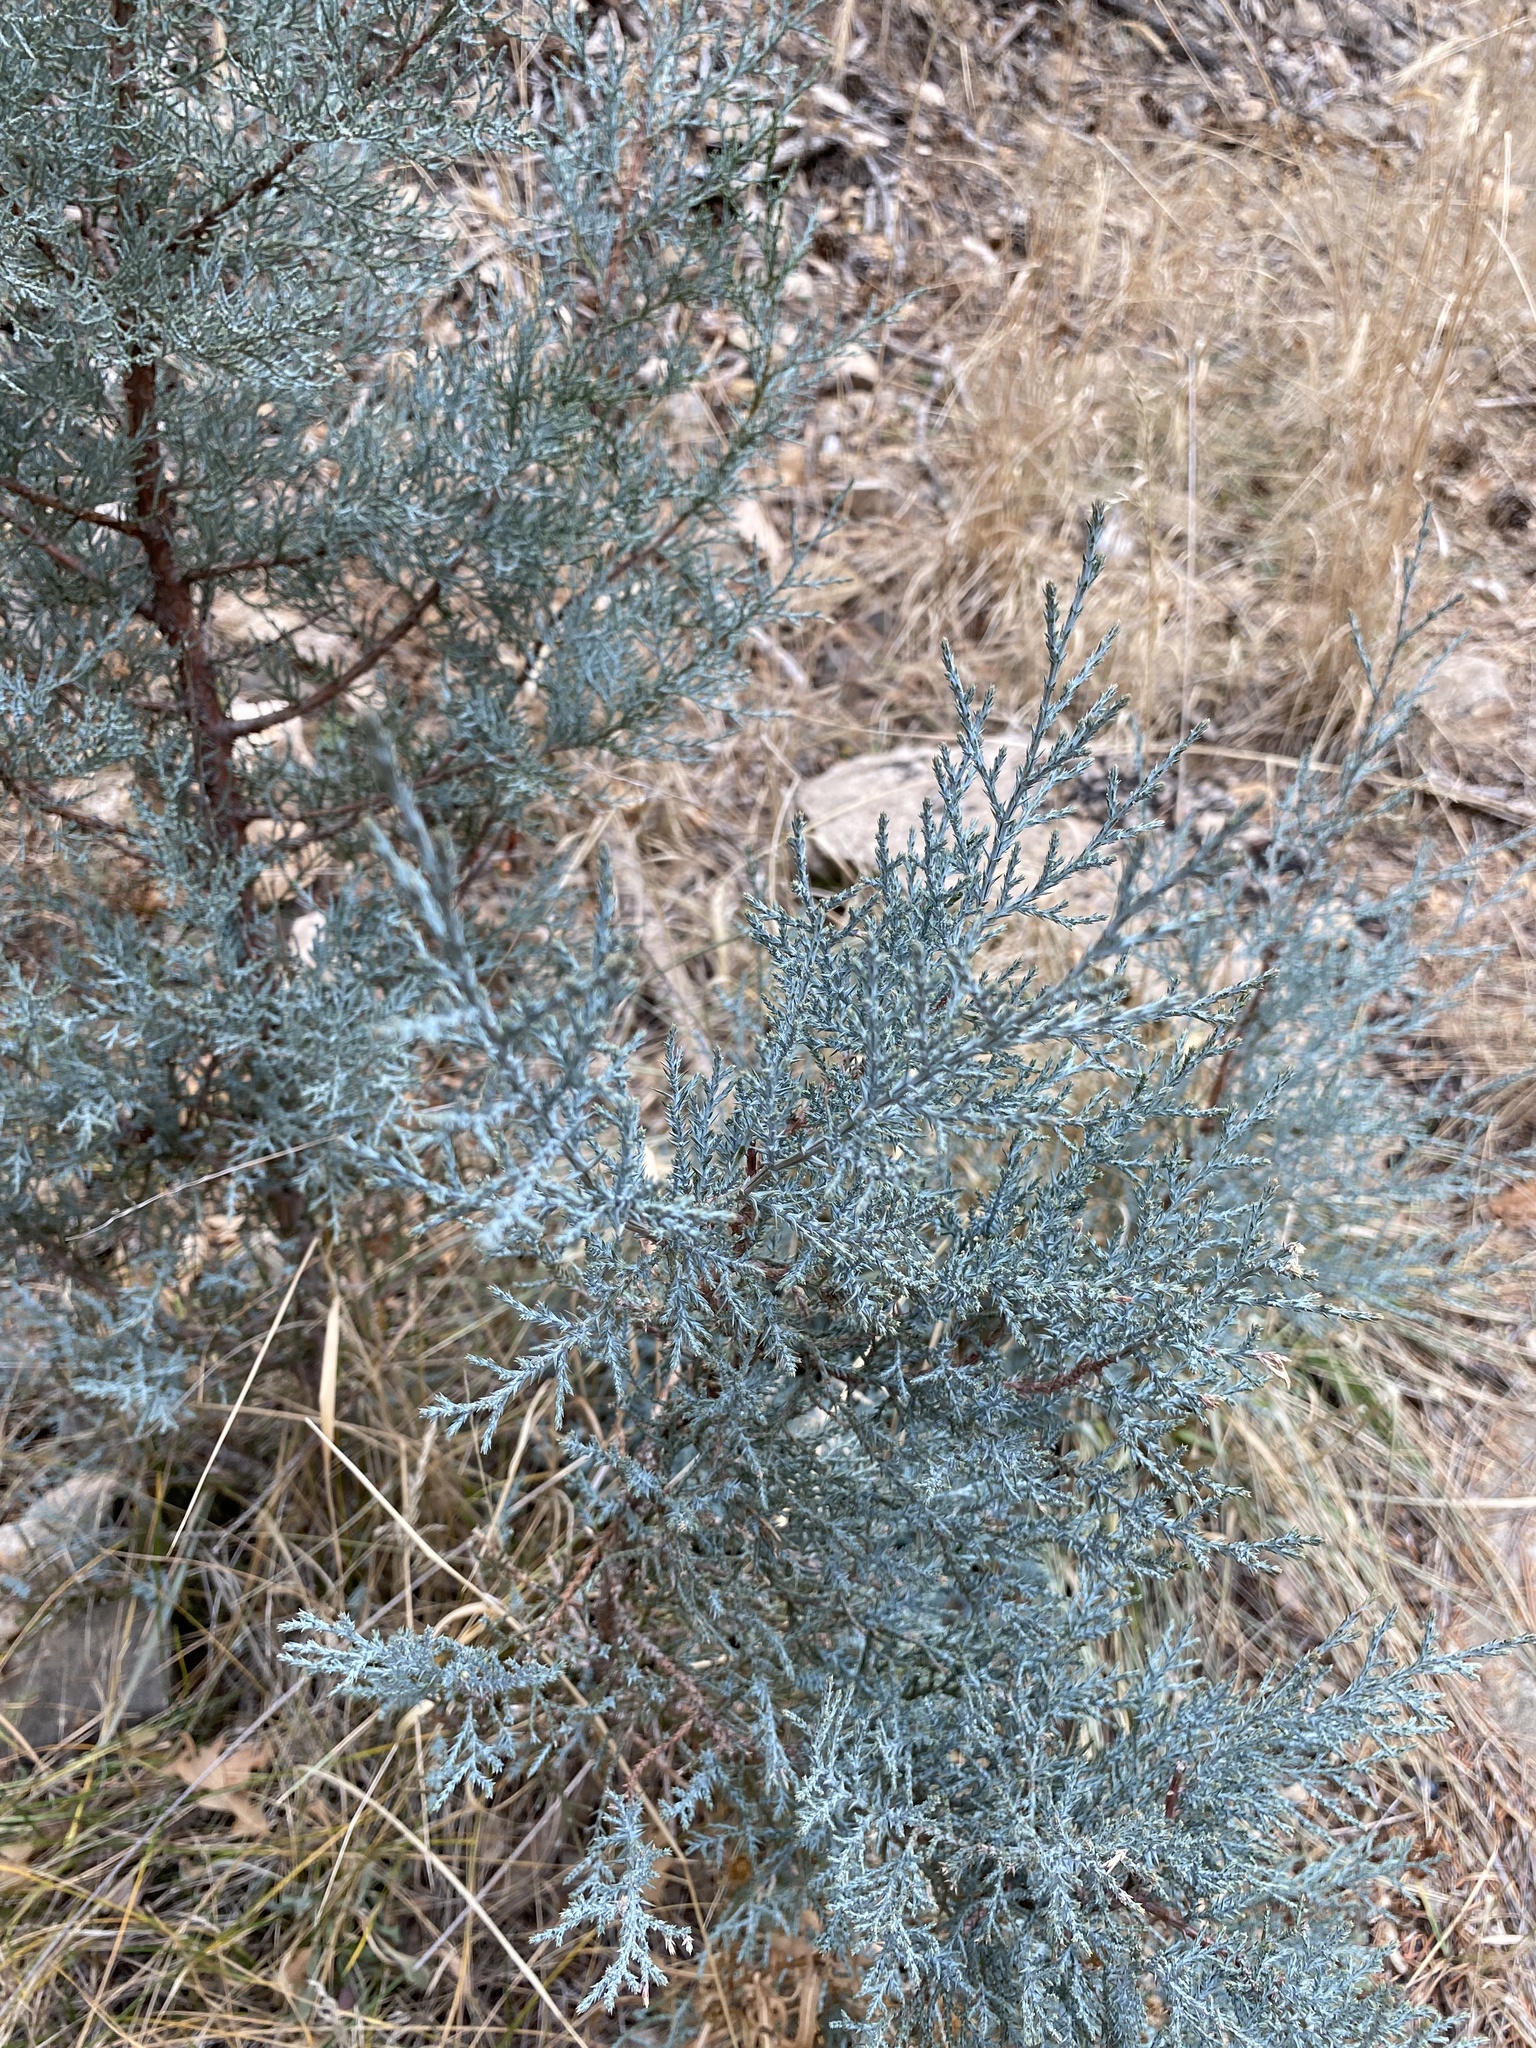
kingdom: Plantae
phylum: Tracheophyta
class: Pinopsida
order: Pinales
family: Cupressaceae
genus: Juniperus
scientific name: Juniperus deppeana
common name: Alligator juniper
